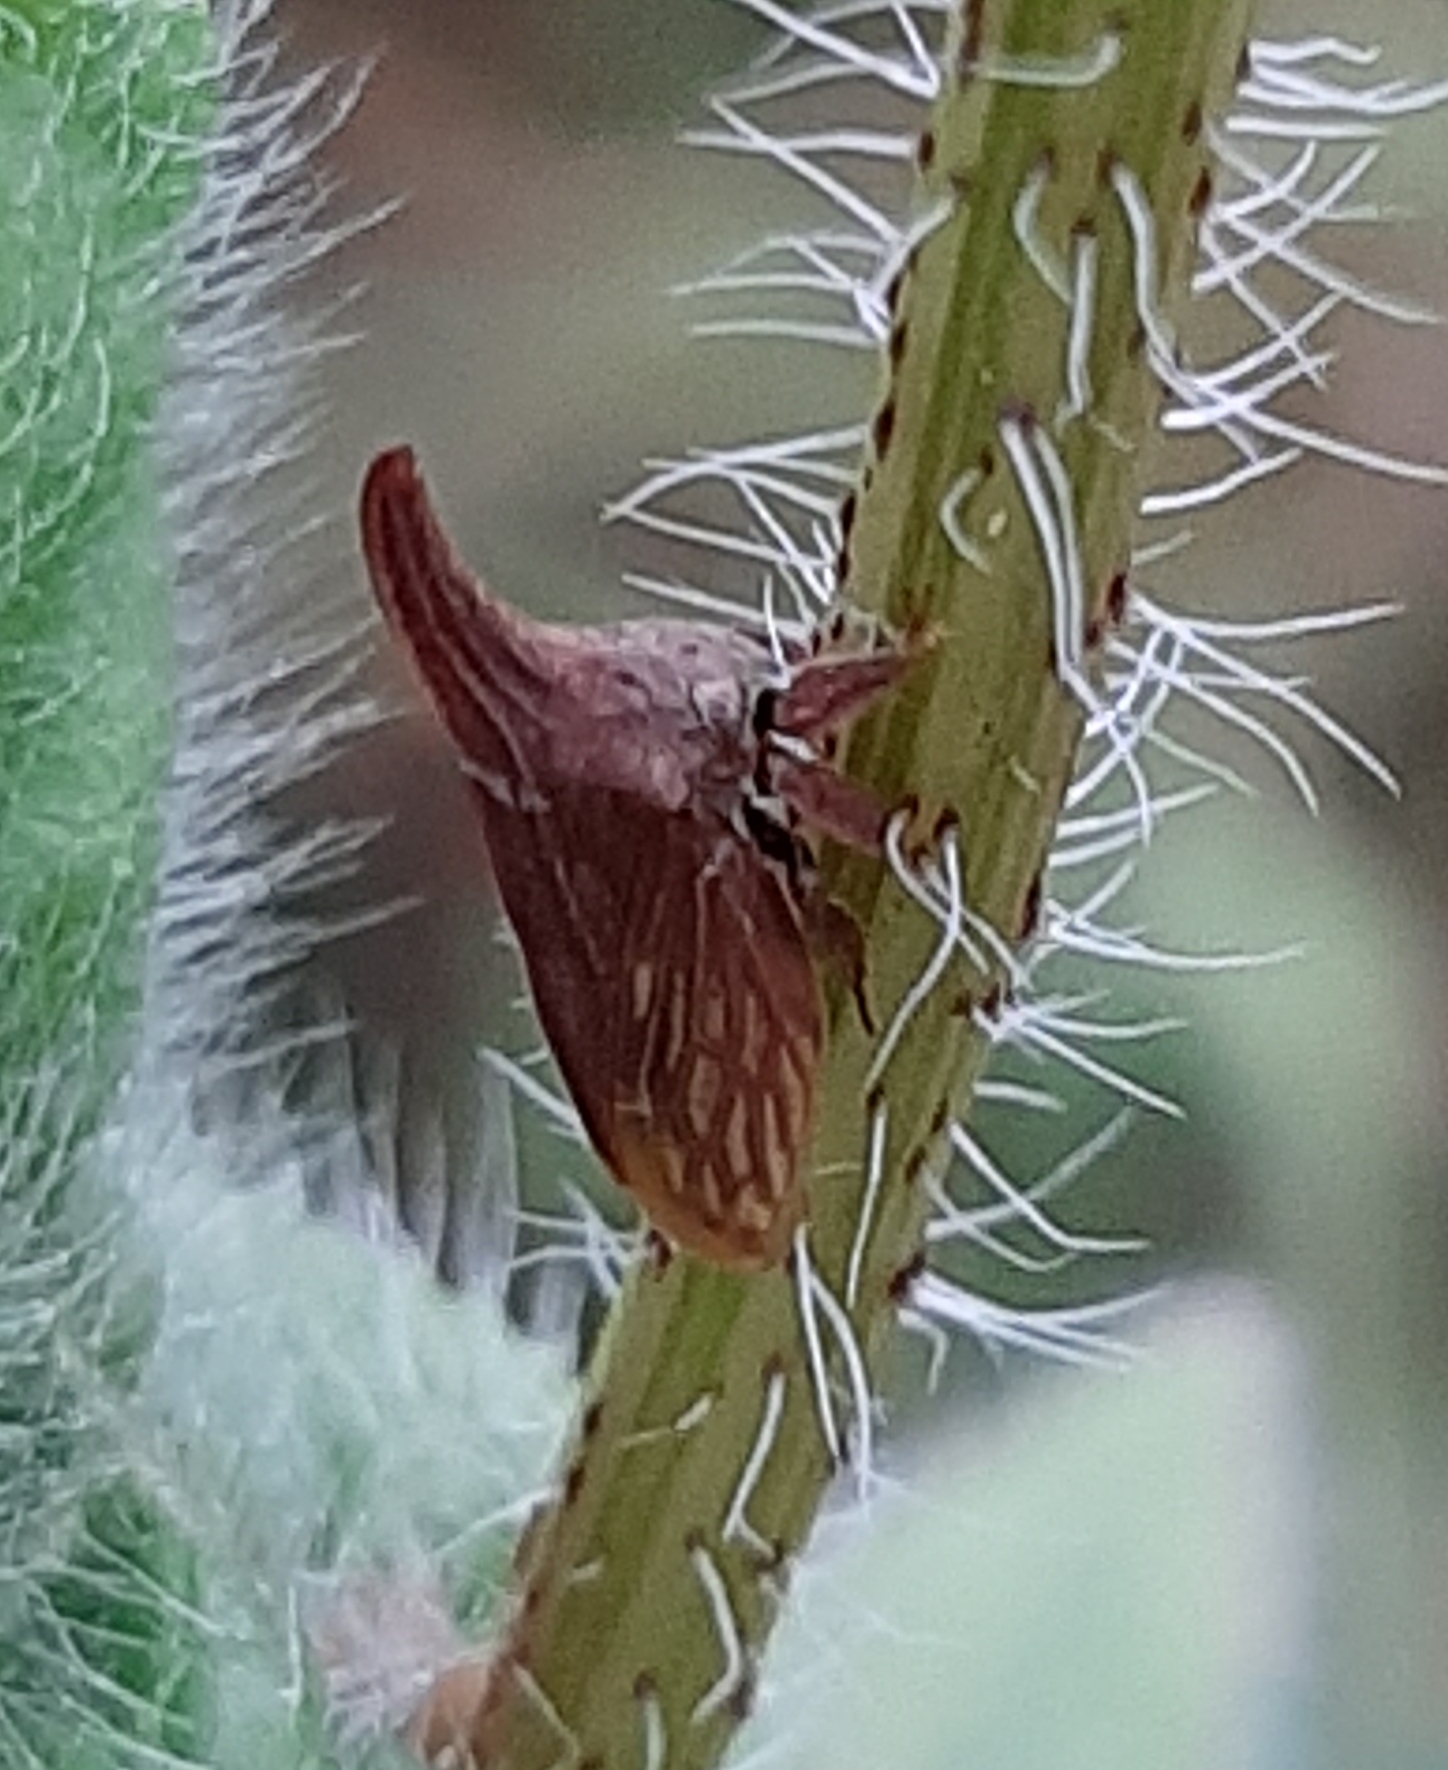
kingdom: Animalia
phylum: Arthropoda
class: Insecta
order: Hemiptera
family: Membracidae
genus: Enchenopa
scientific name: Enchenopa latipes
